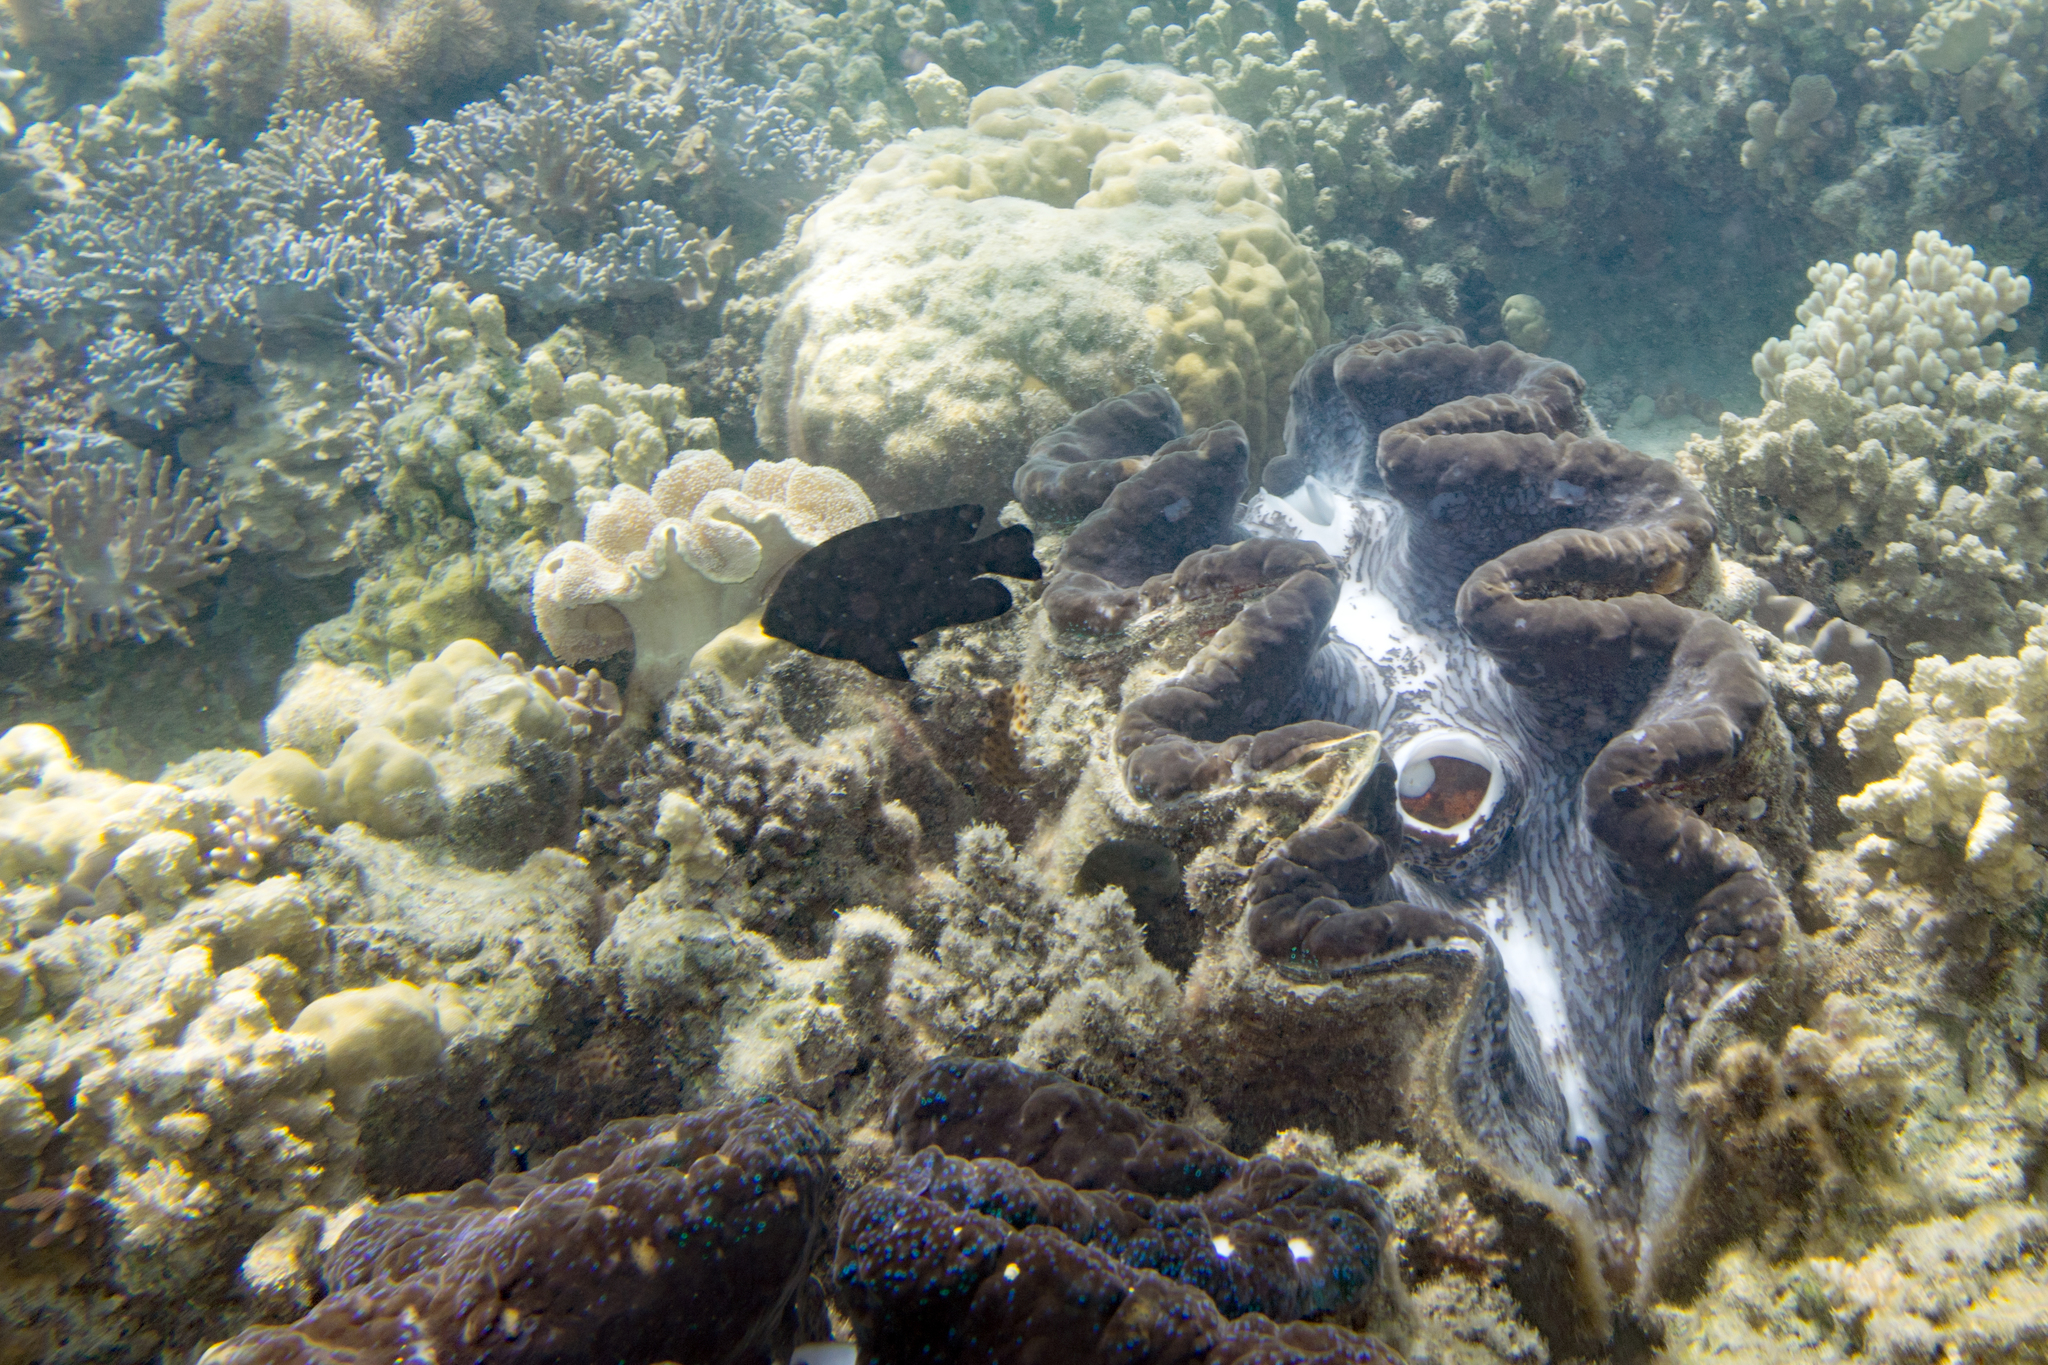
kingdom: Animalia
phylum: Chordata
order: Perciformes
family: Pomacentridae
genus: Neoglyphidodon
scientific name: Neoglyphidodon melas
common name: Black damsel
